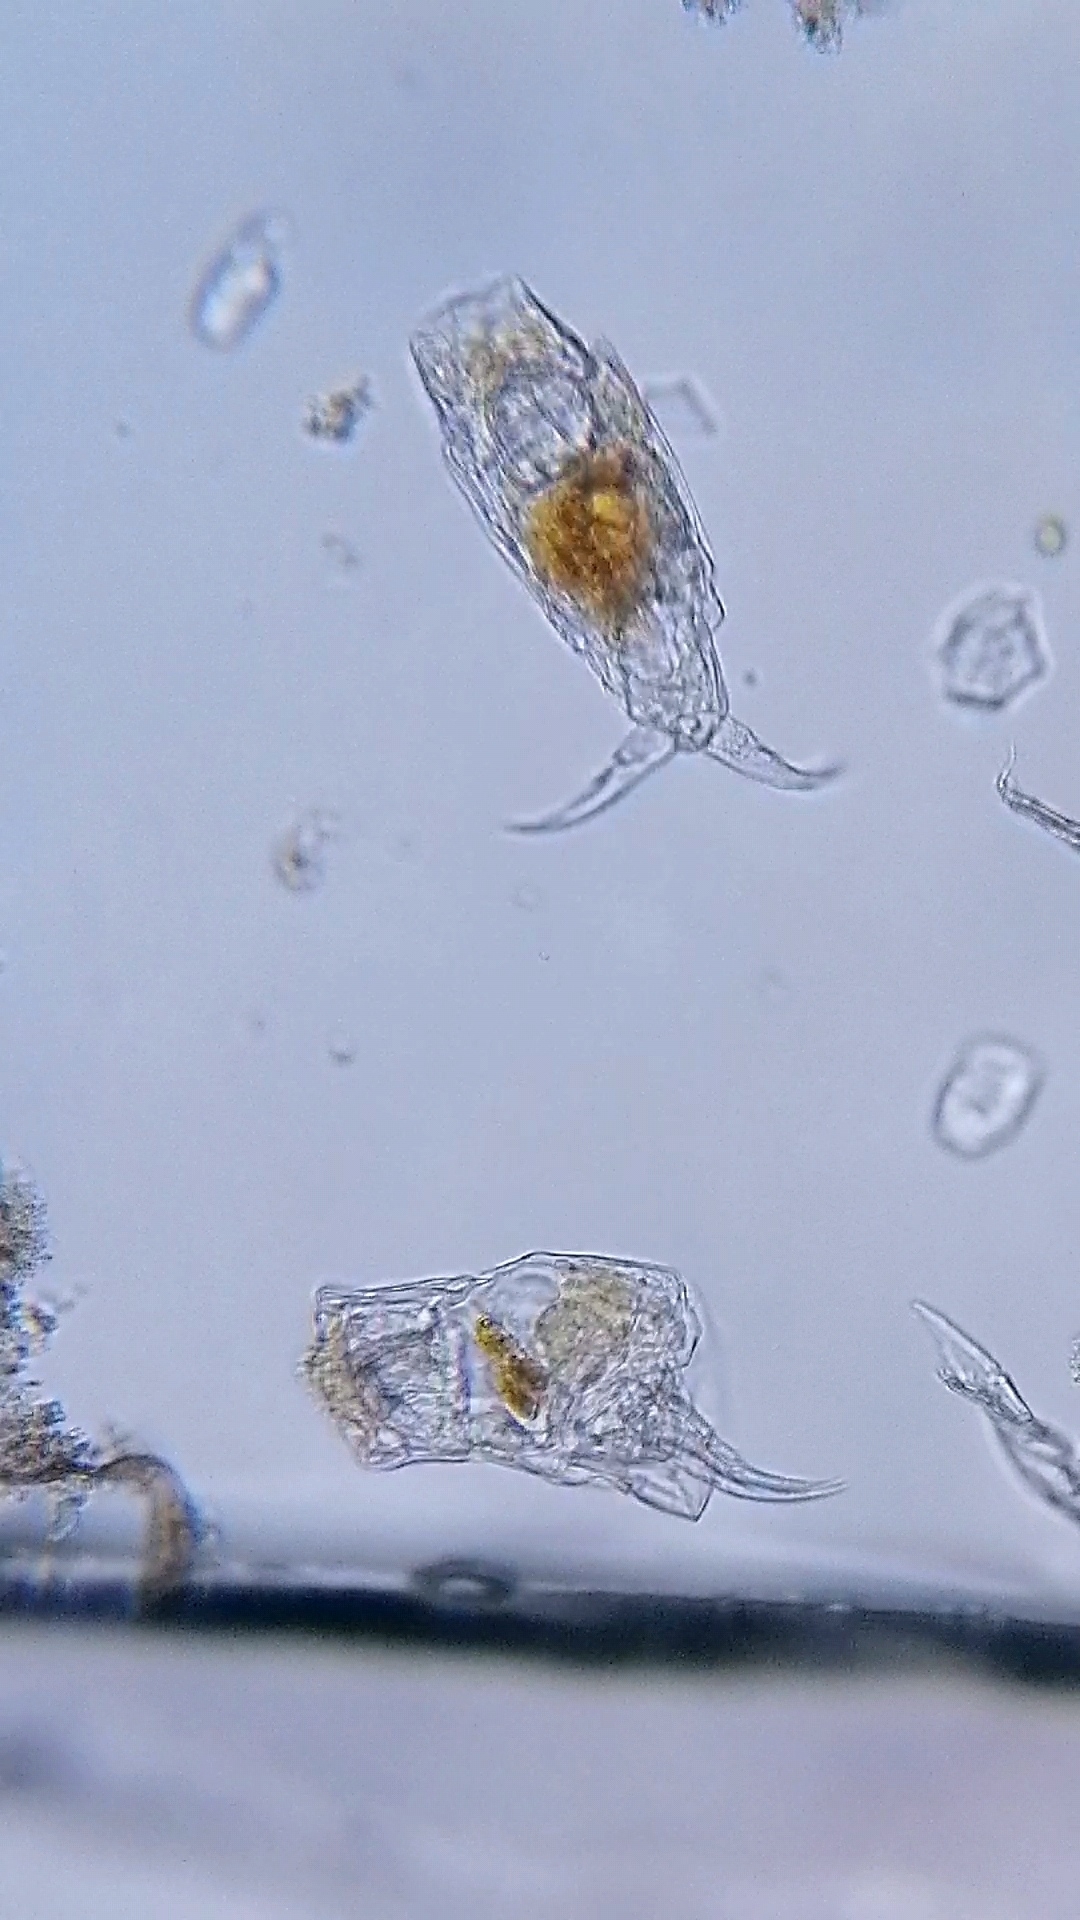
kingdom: Animalia
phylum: Rotifera
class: Eurotatoria
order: Ploima
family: Notommatidae
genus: Cephalodella
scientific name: Cephalodella forficula
